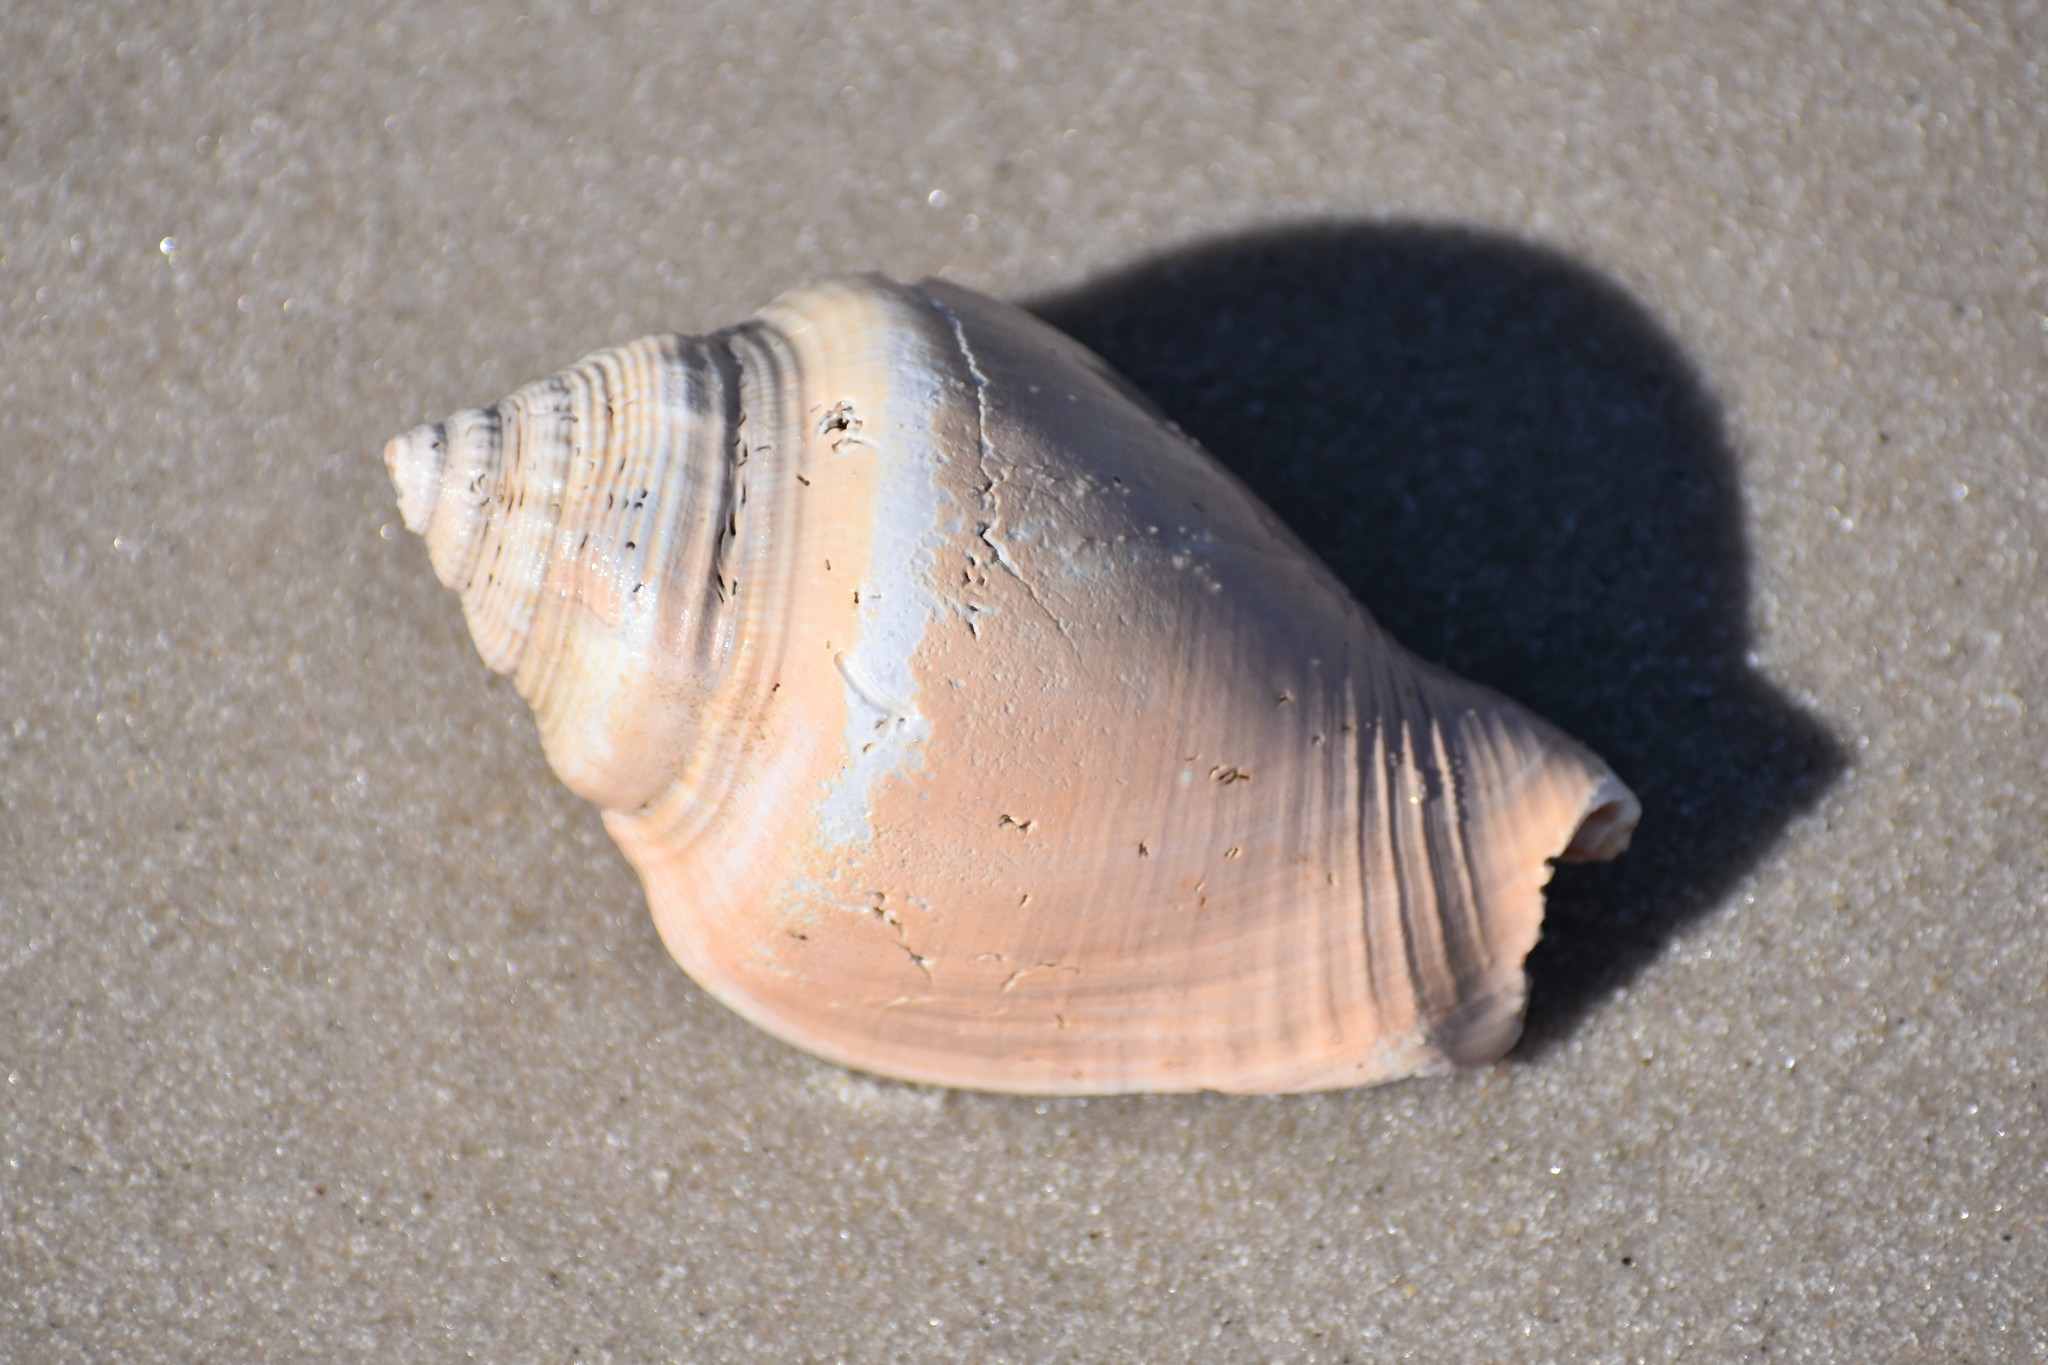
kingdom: Animalia
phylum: Mollusca
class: Gastropoda
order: Littorinimorpha
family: Strombidae
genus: Strombus
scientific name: Strombus alatus
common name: Florida fighting conch
